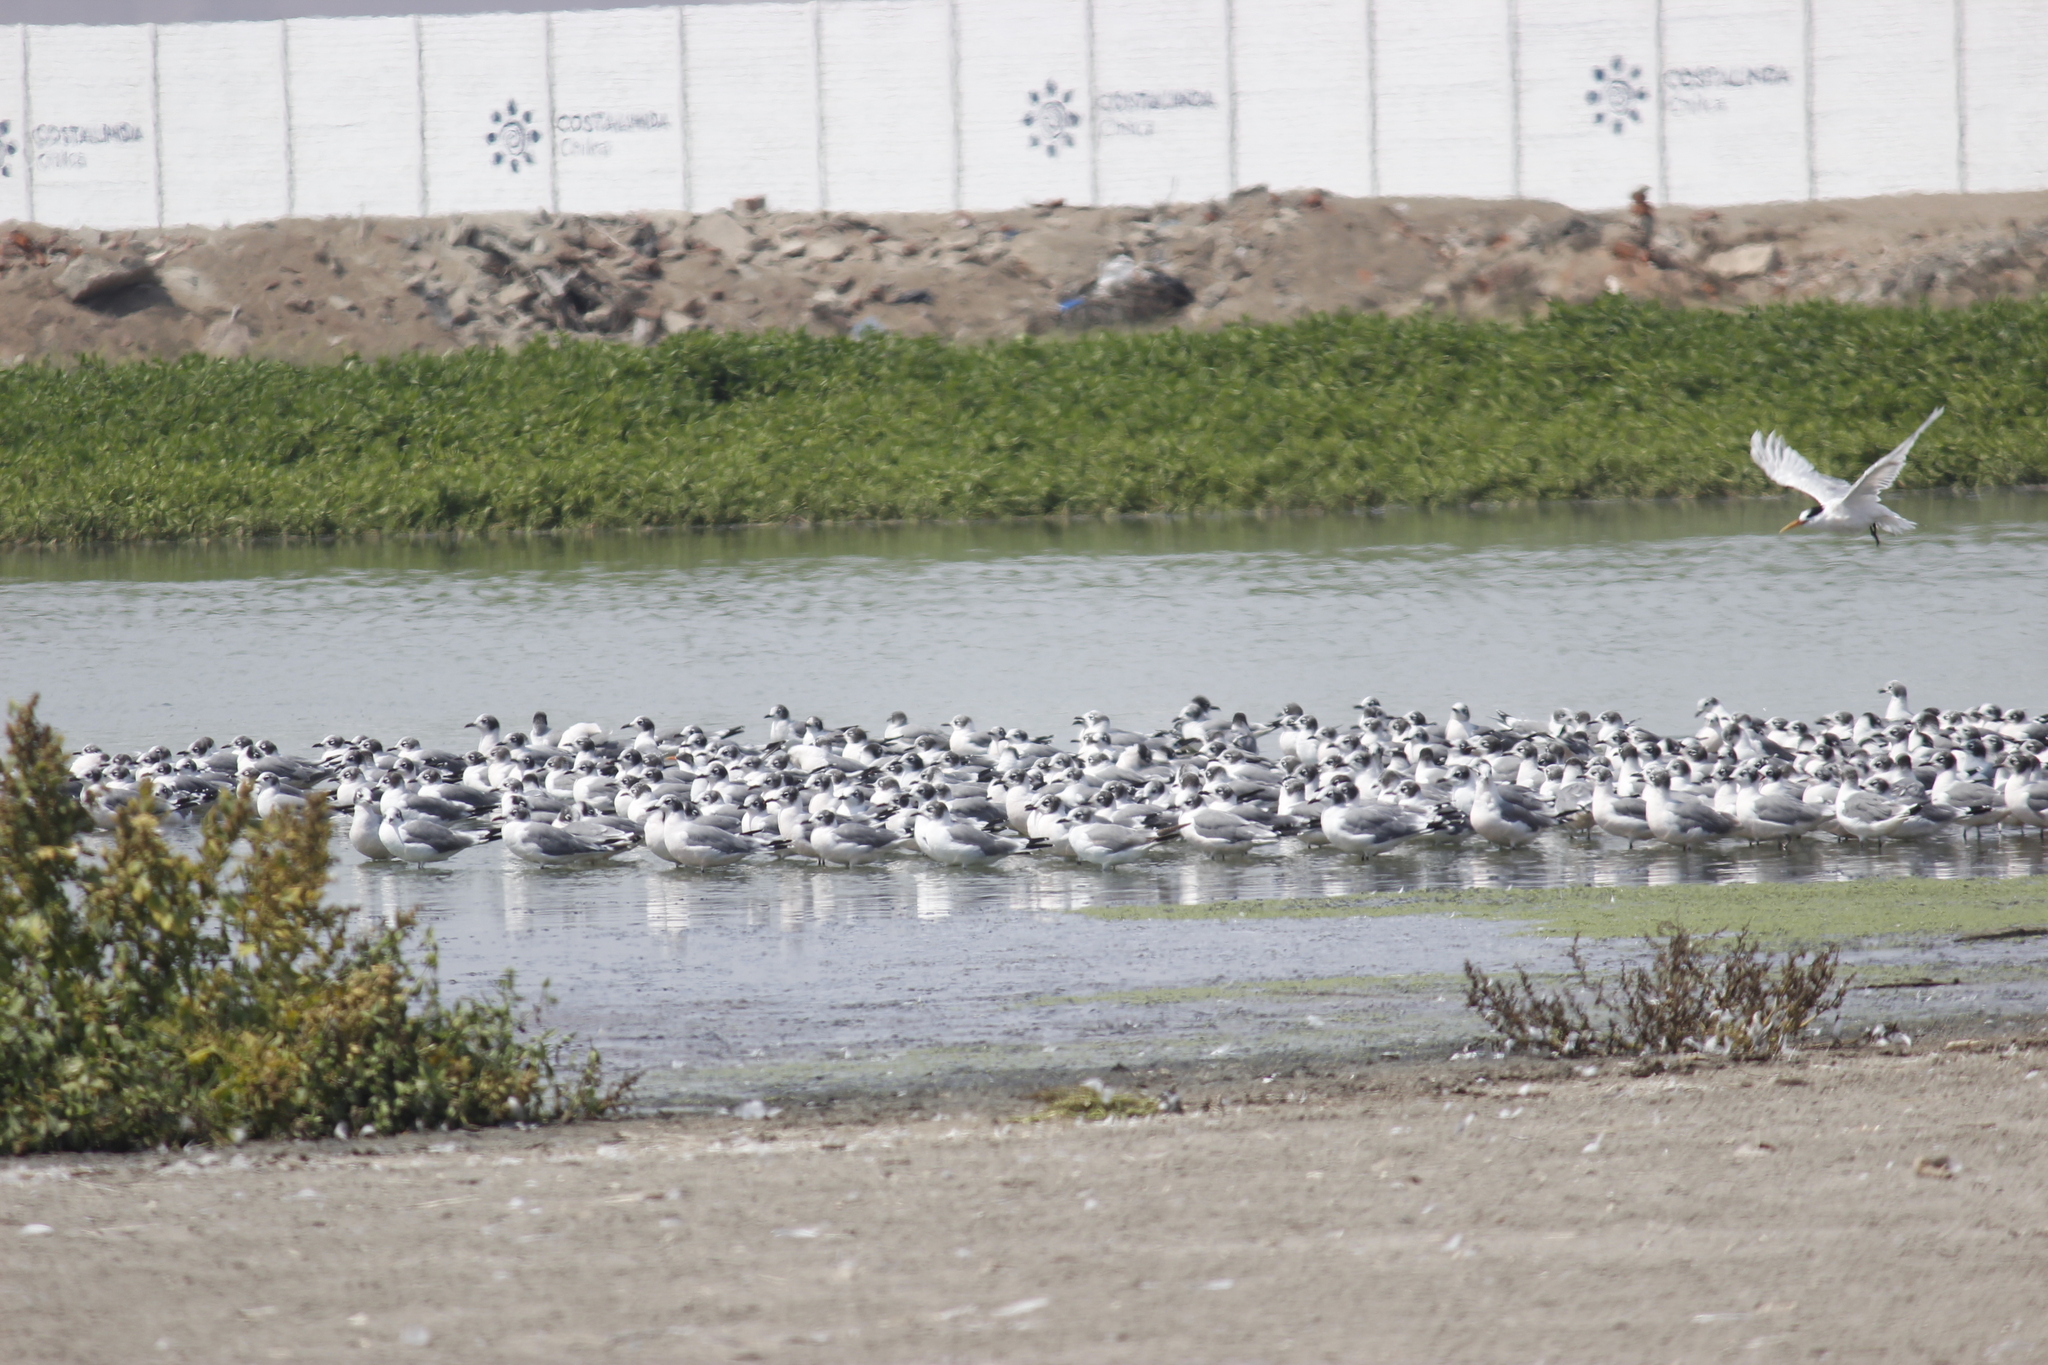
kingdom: Animalia
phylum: Chordata
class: Aves
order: Charadriiformes
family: Laridae
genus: Leucophaeus
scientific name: Leucophaeus pipixcan
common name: Franklin's gull
